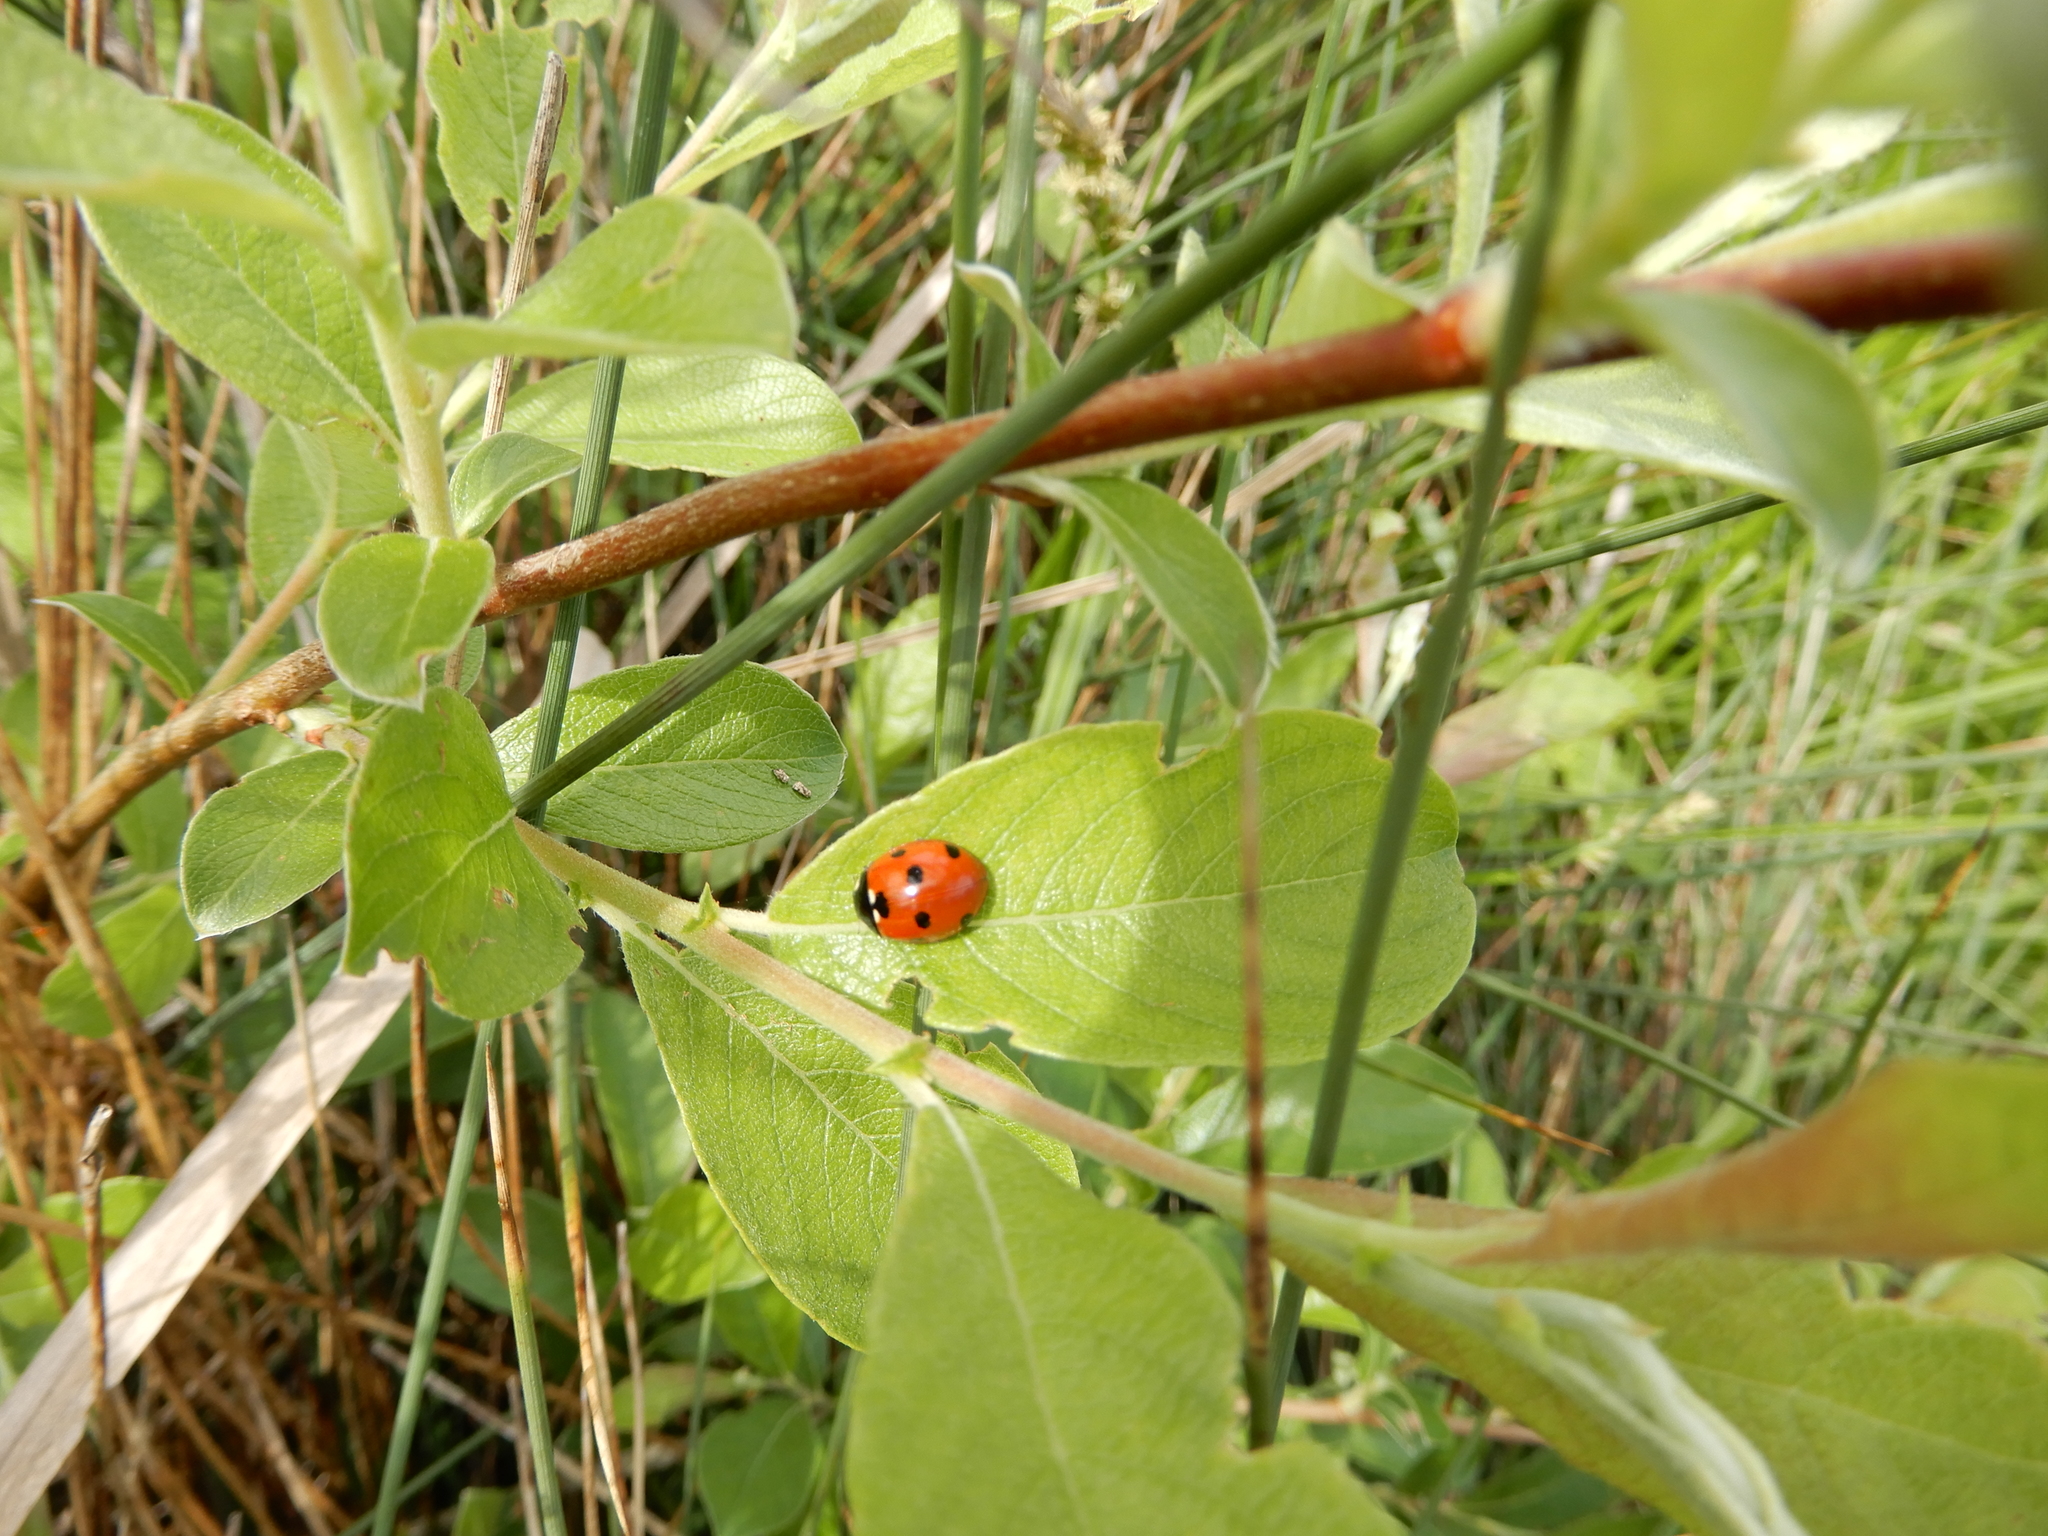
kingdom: Animalia
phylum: Arthropoda
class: Insecta
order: Coleoptera
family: Coccinellidae
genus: Coccinella
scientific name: Coccinella septempunctata
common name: Sevenspotted lady beetle
